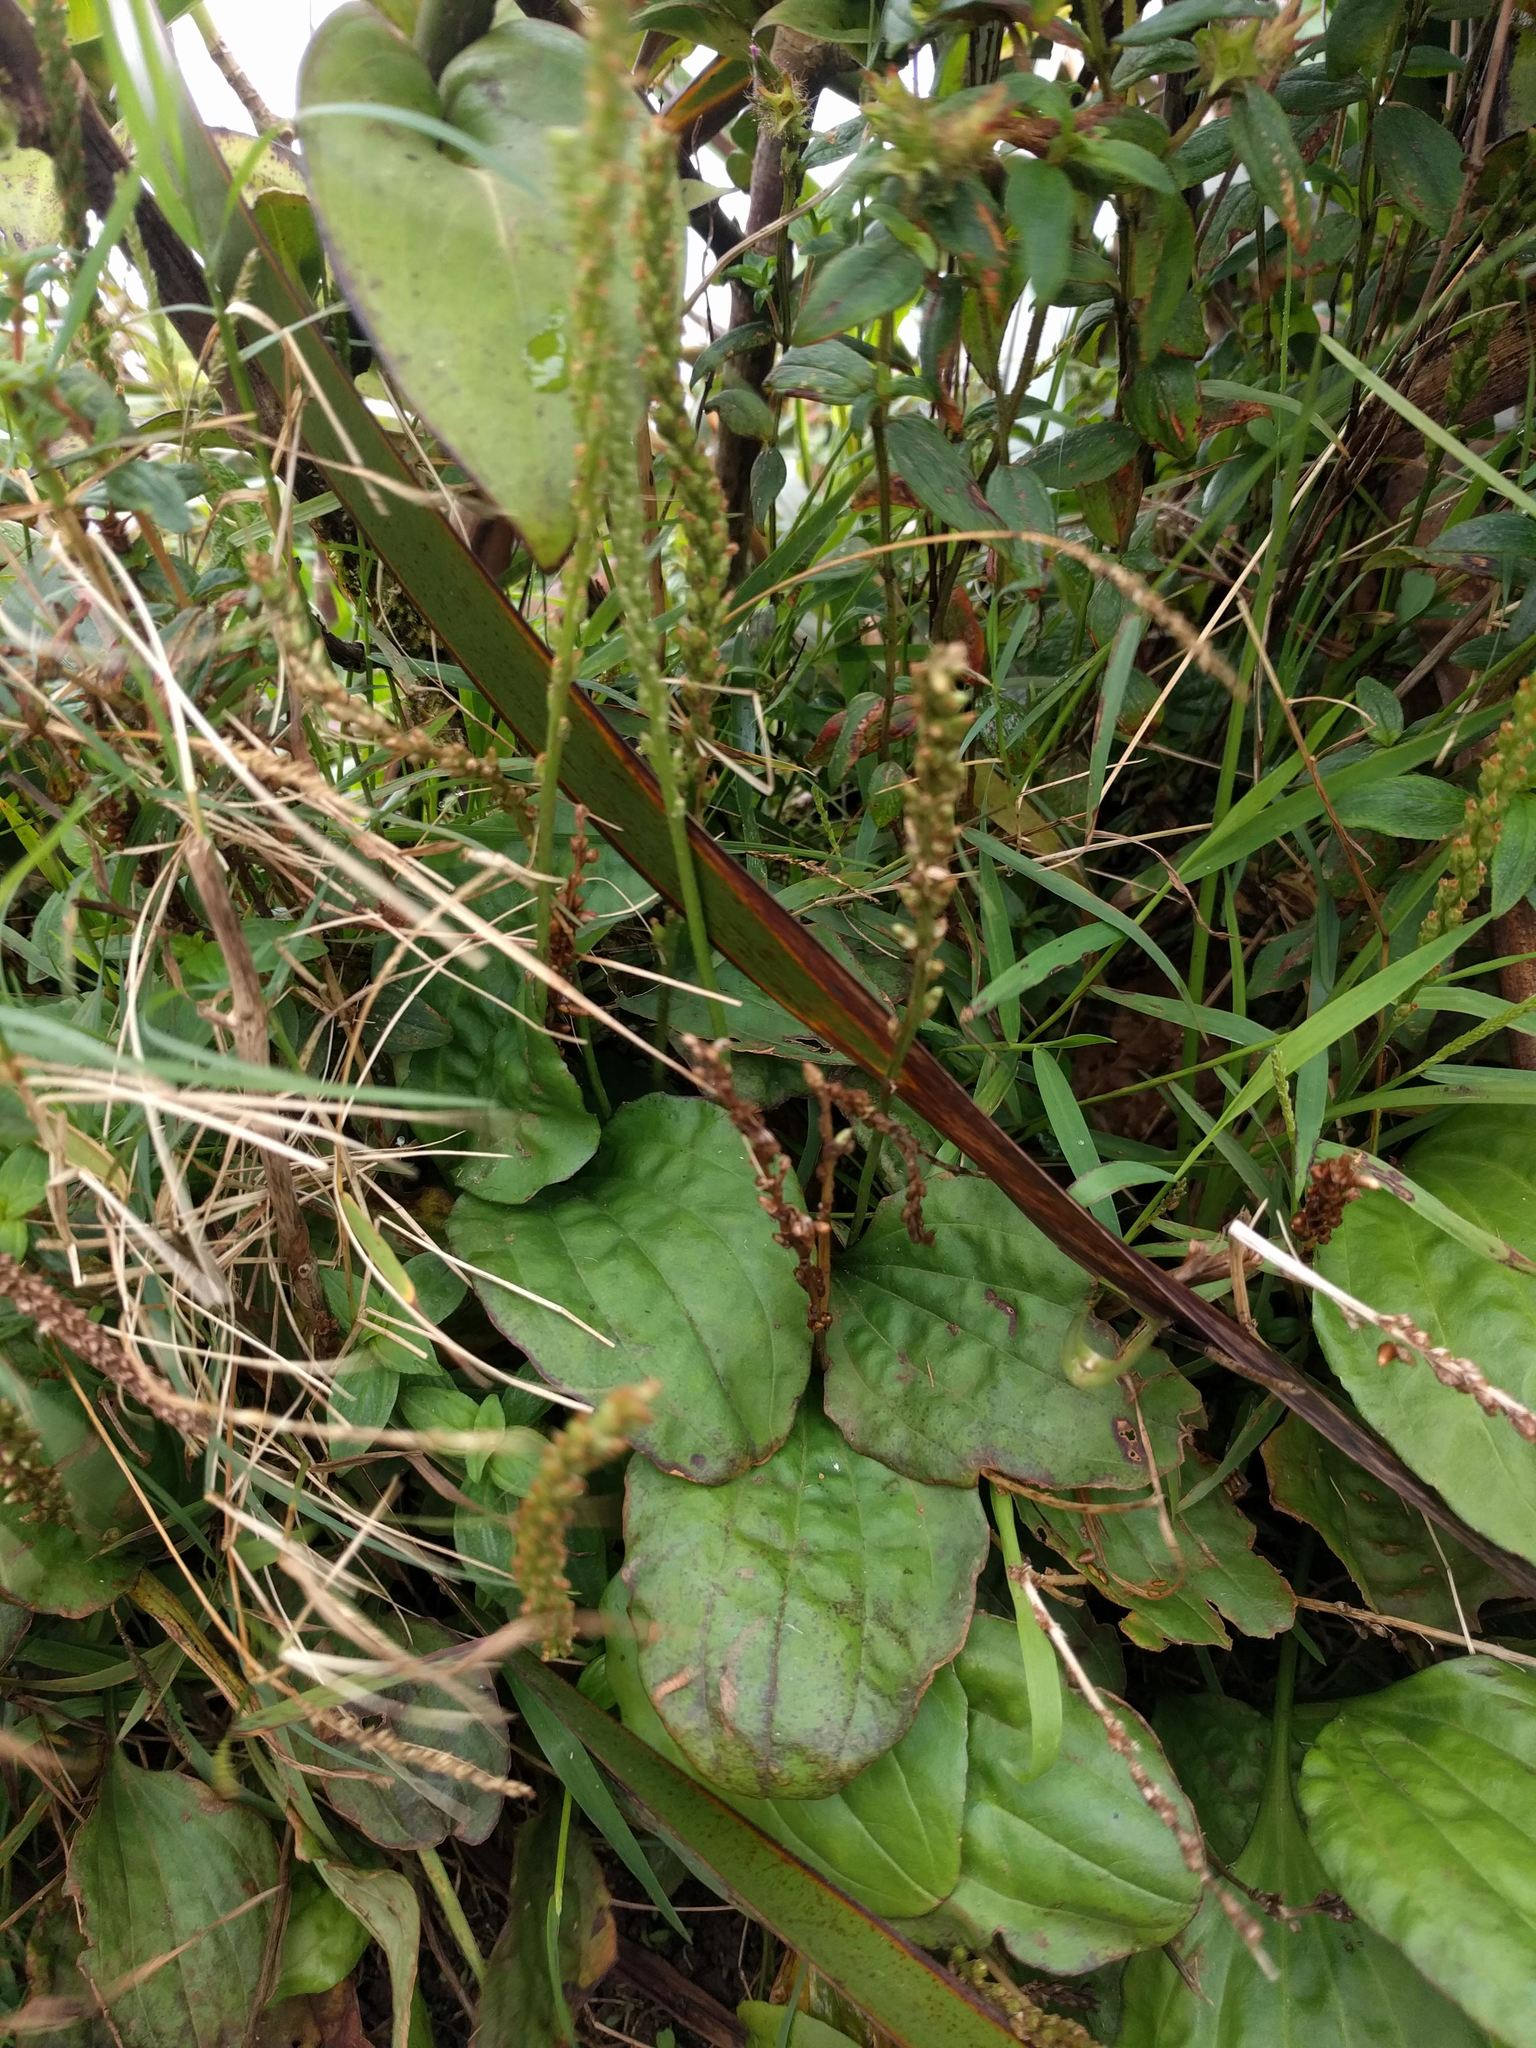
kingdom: Plantae
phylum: Tracheophyta
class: Magnoliopsida
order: Lamiales
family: Plantaginaceae
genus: Plantago
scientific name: Plantago major
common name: Common plantain
